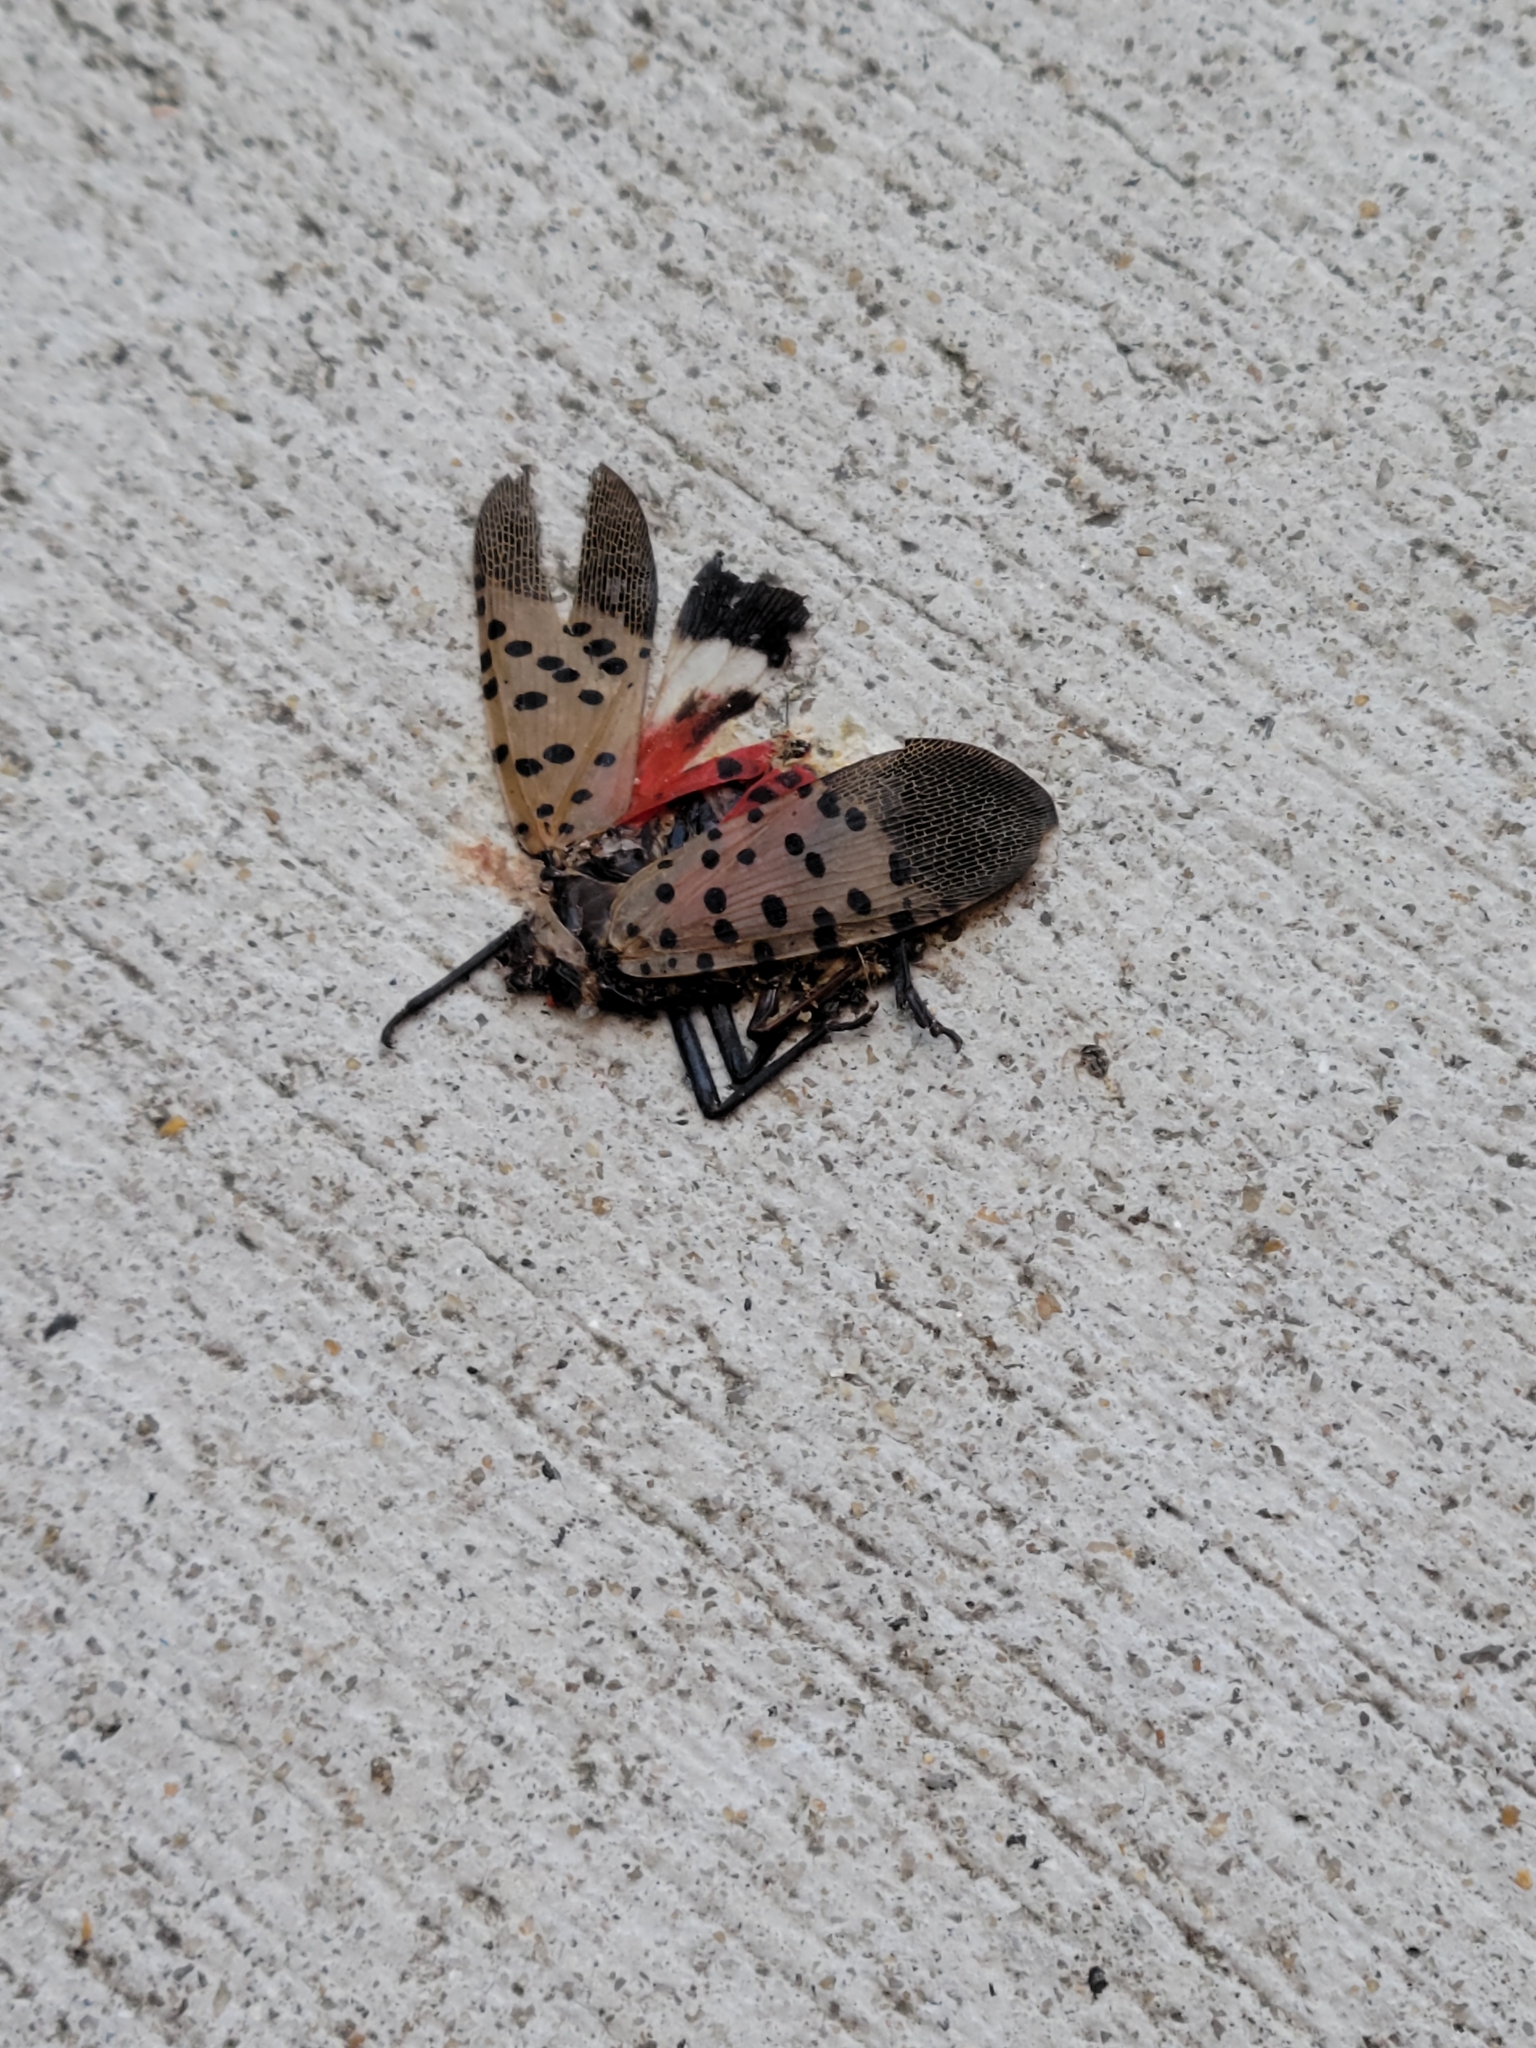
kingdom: Animalia
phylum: Arthropoda
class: Insecta
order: Hemiptera
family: Fulgoridae
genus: Lycorma
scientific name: Lycorma delicatula
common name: Spotted lanternfly
